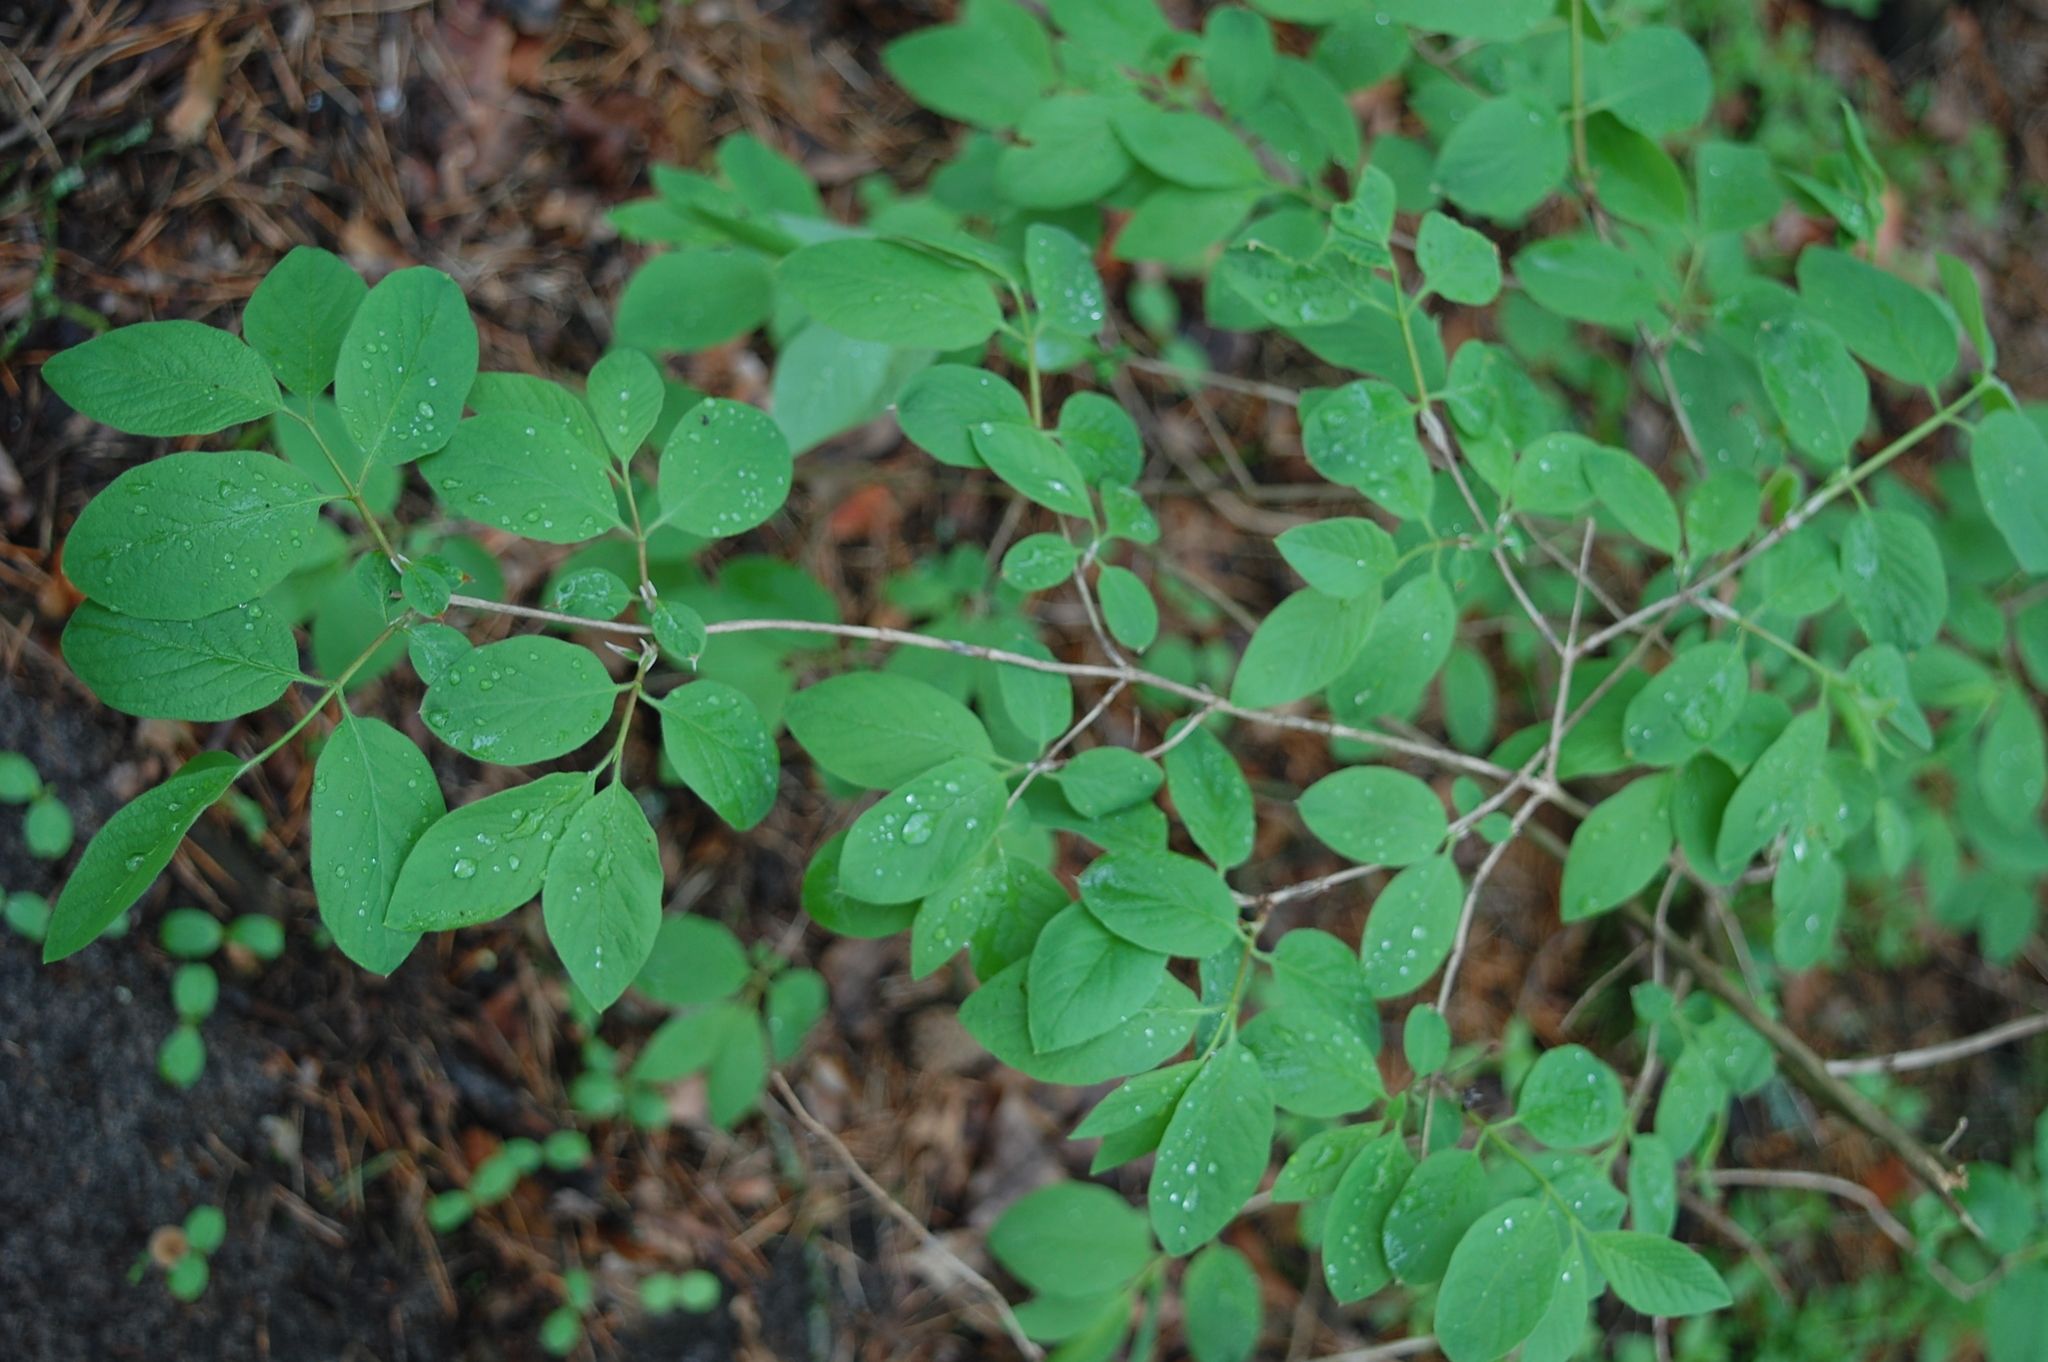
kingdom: Plantae
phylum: Tracheophyta
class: Magnoliopsida
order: Dipsacales
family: Caprifoliaceae
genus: Lonicera
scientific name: Lonicera xylosteum
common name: Fly honeysuckle
